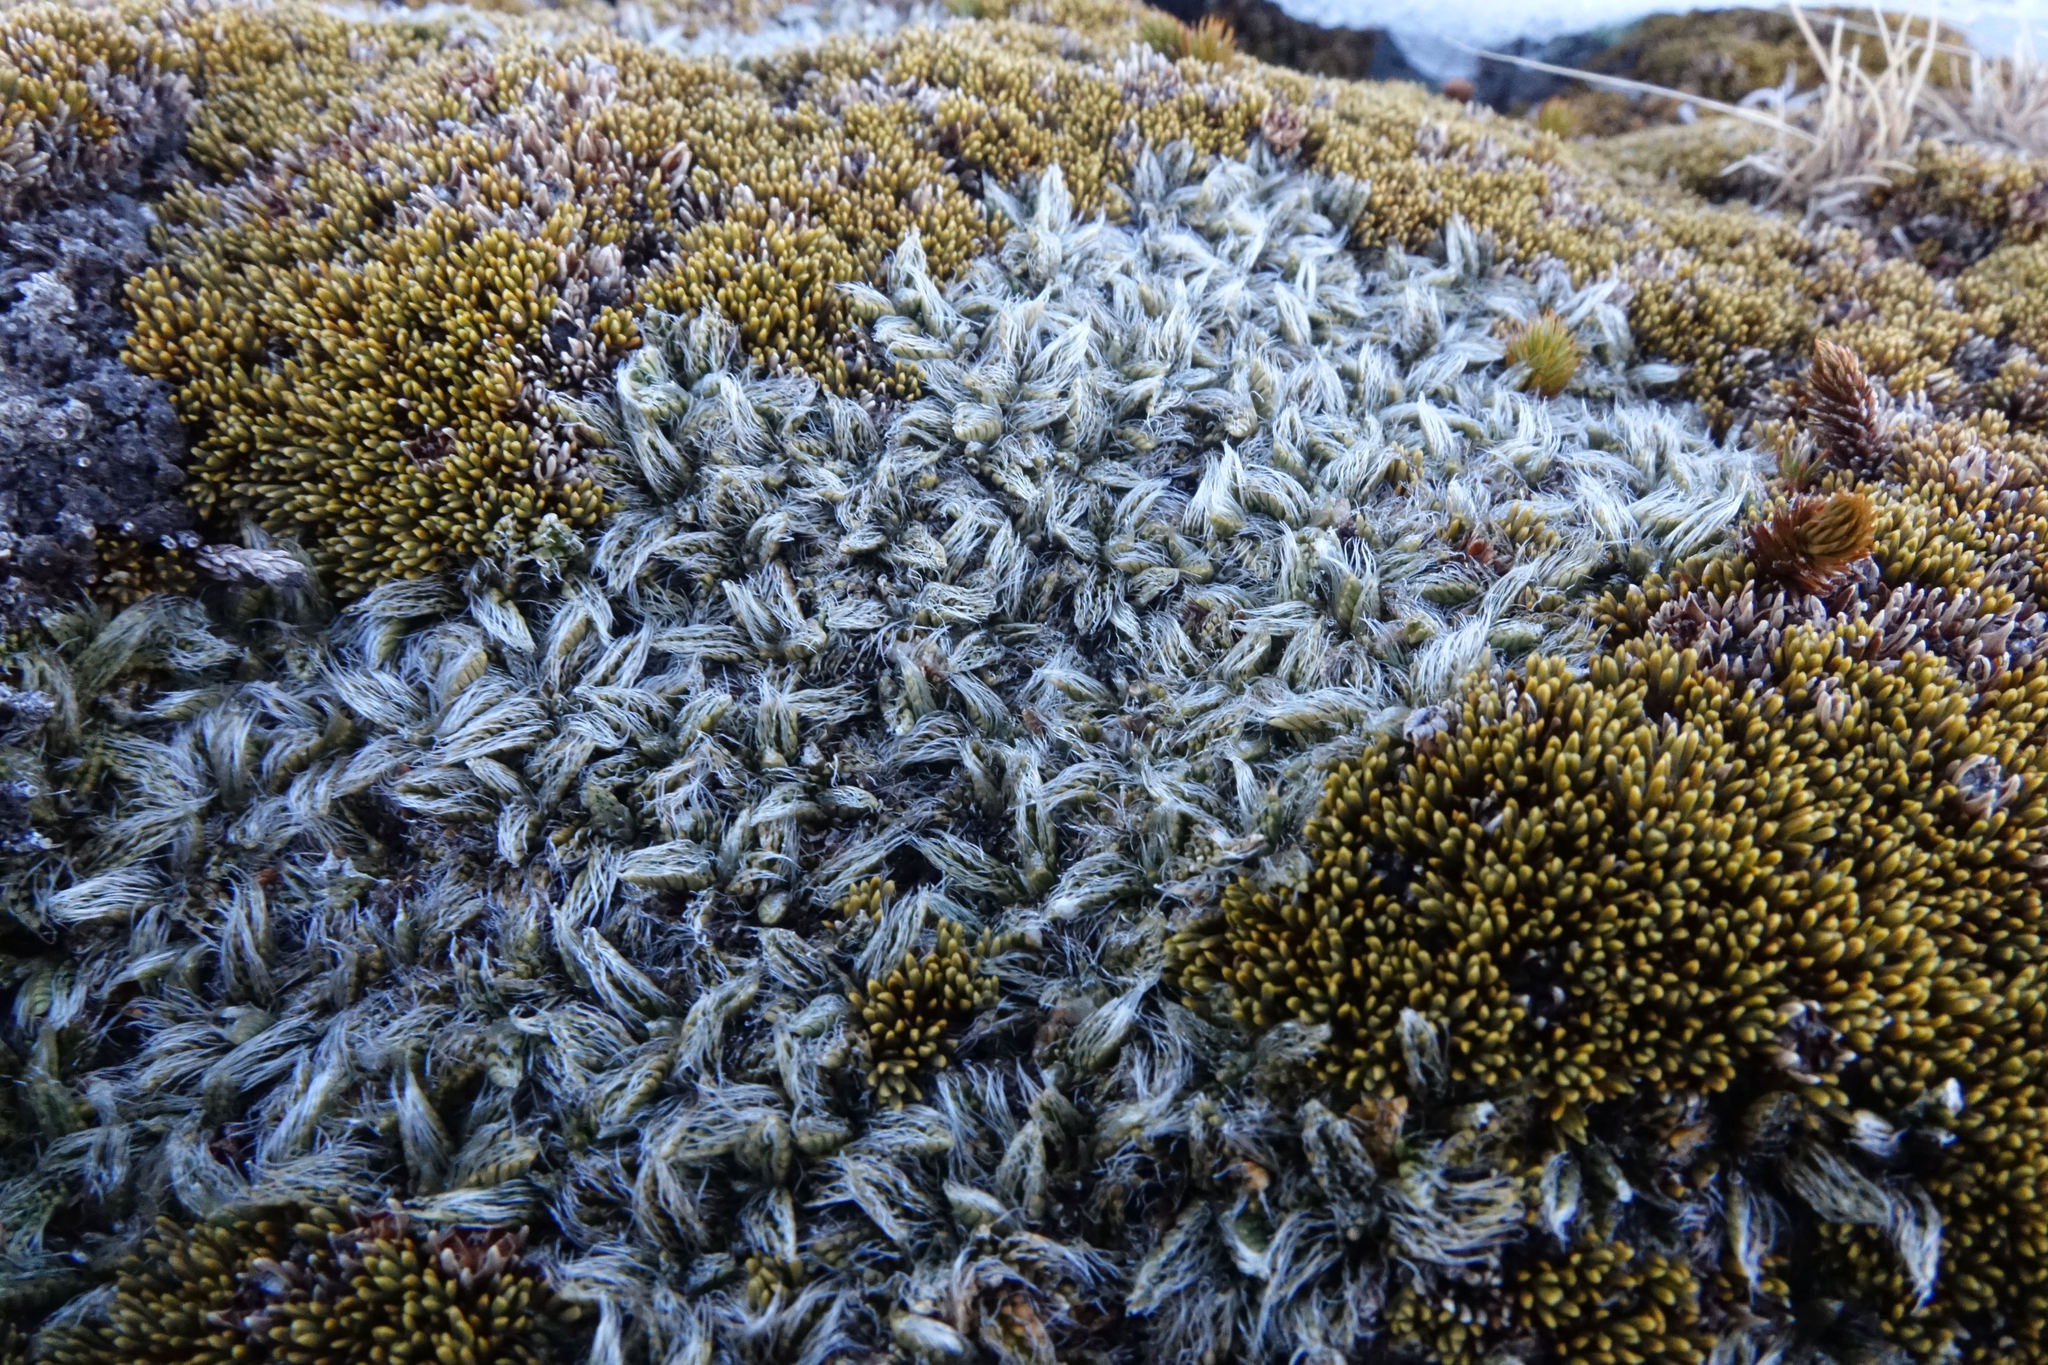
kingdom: Plantae
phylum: Tracheophyta
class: Magnoliopsida
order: Apiales
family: Apiaceae
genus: Anisotome
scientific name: Anisotome imbricata
